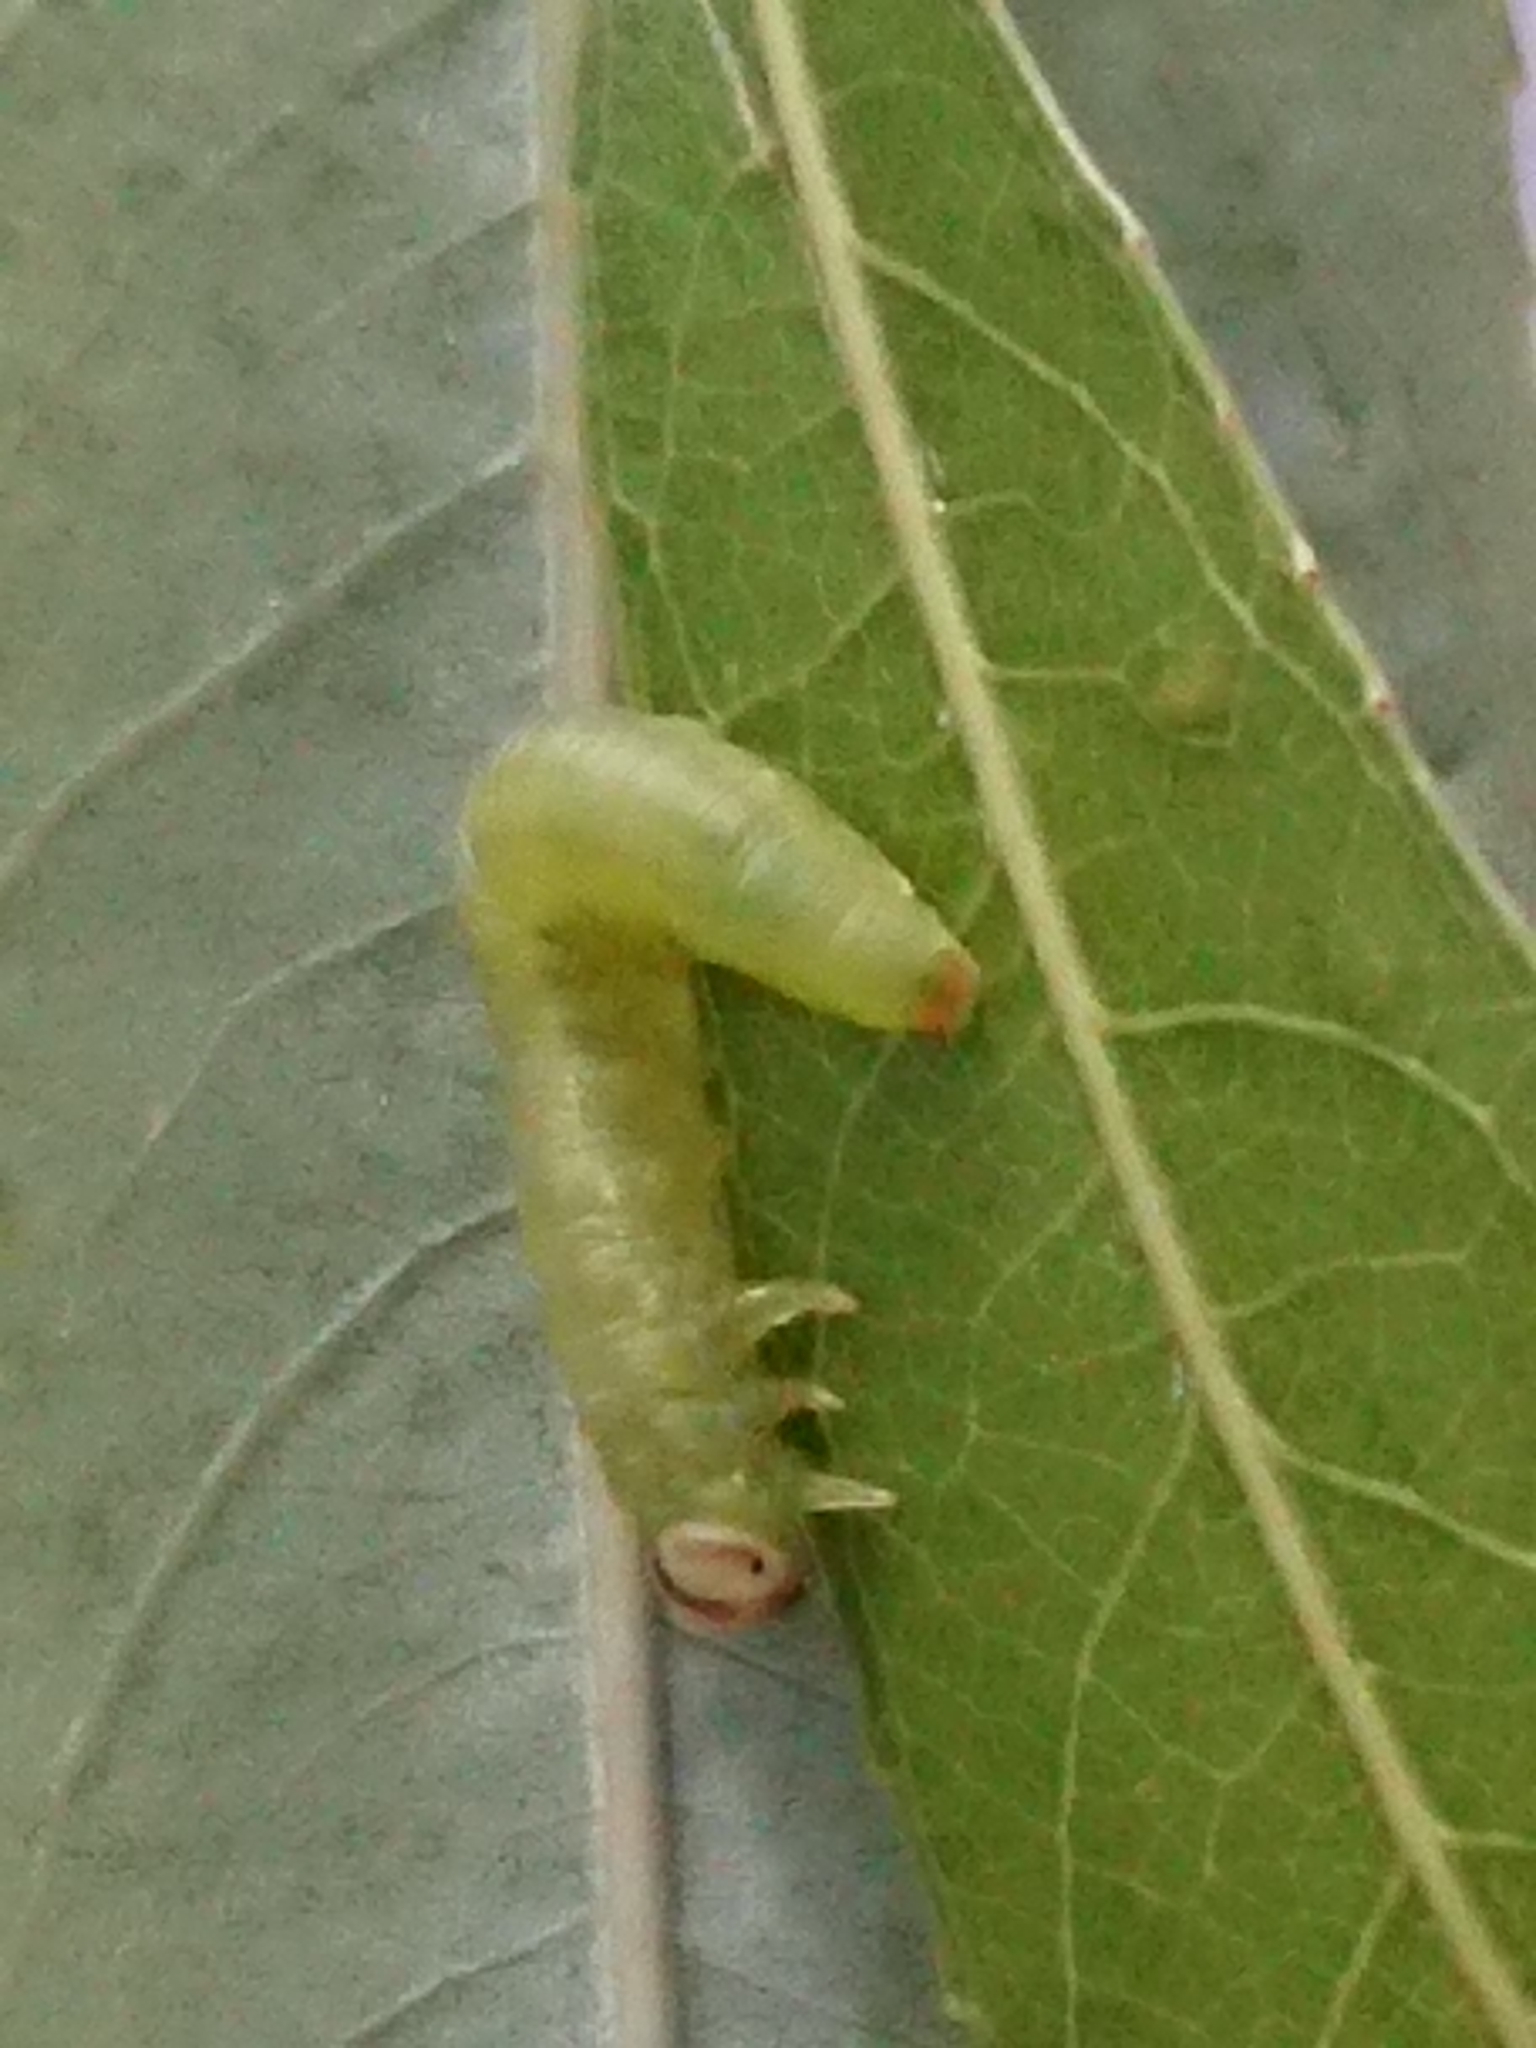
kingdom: Animalia
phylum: Arthropoda
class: Insecta
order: Hymenoptera
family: Tenthredinidae
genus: Nematus
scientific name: Nematus respondens
